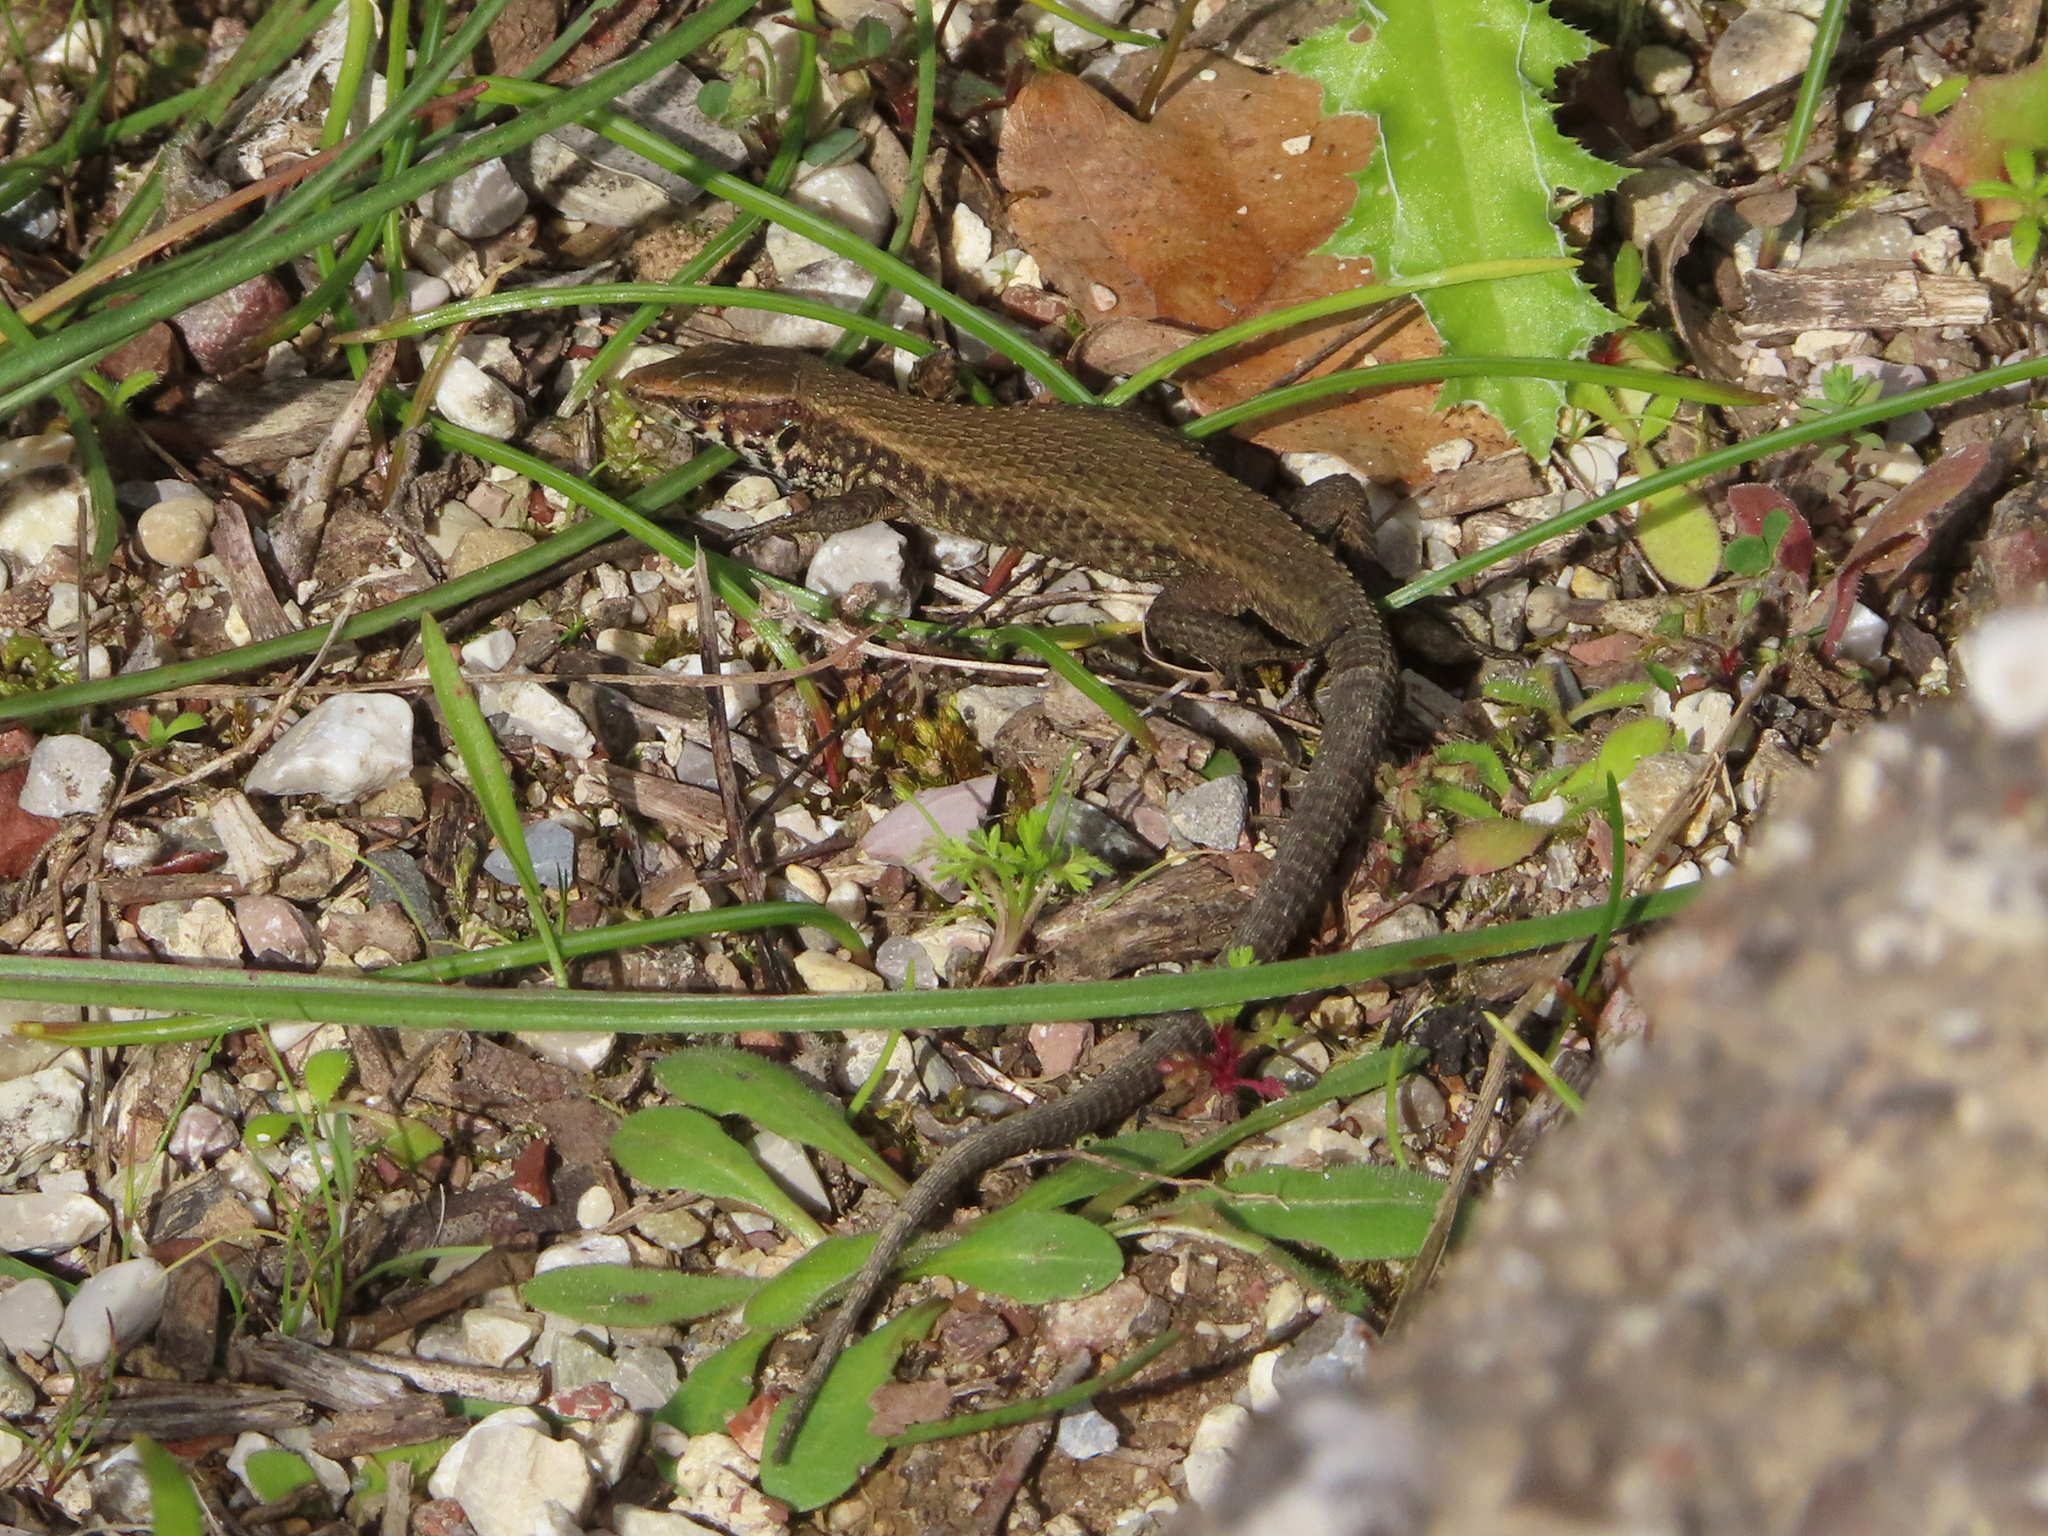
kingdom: Animalia
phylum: Chordata
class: Squamata
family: Lacertidae
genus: Algyroides
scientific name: Algyroides moreoticus
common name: Greek algyroides
